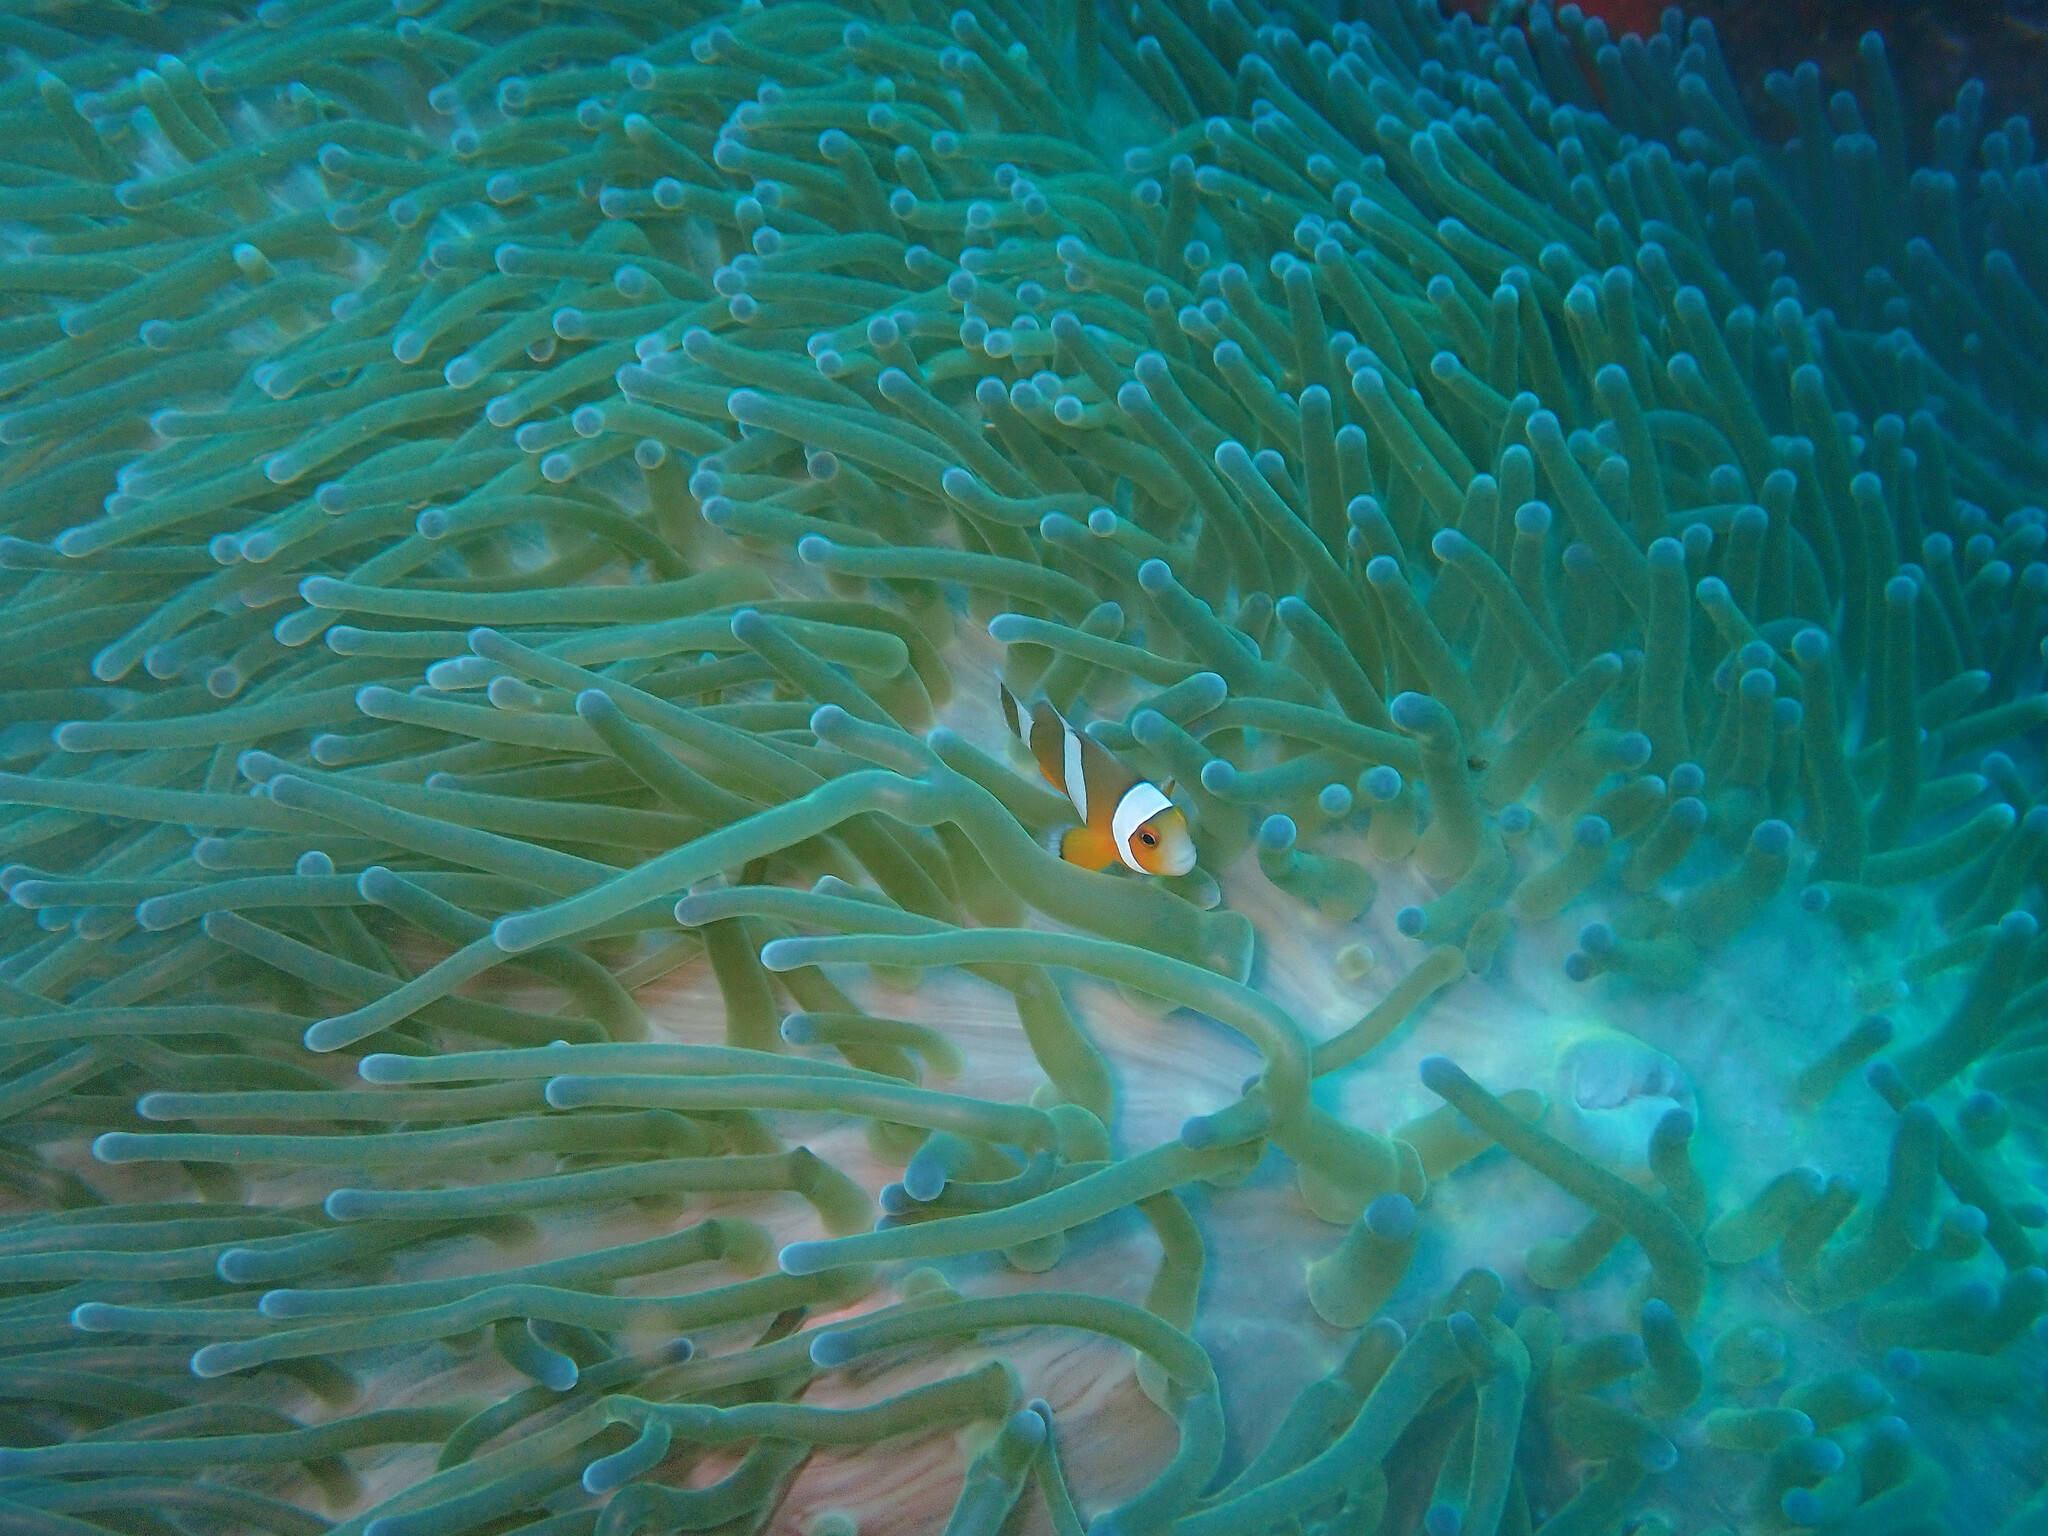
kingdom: Animalia
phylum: Chordata
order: Perciformes
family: Pomacentridae
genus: Amphiprion
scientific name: Amphiprion ocellaris
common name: Clown anemonefish
